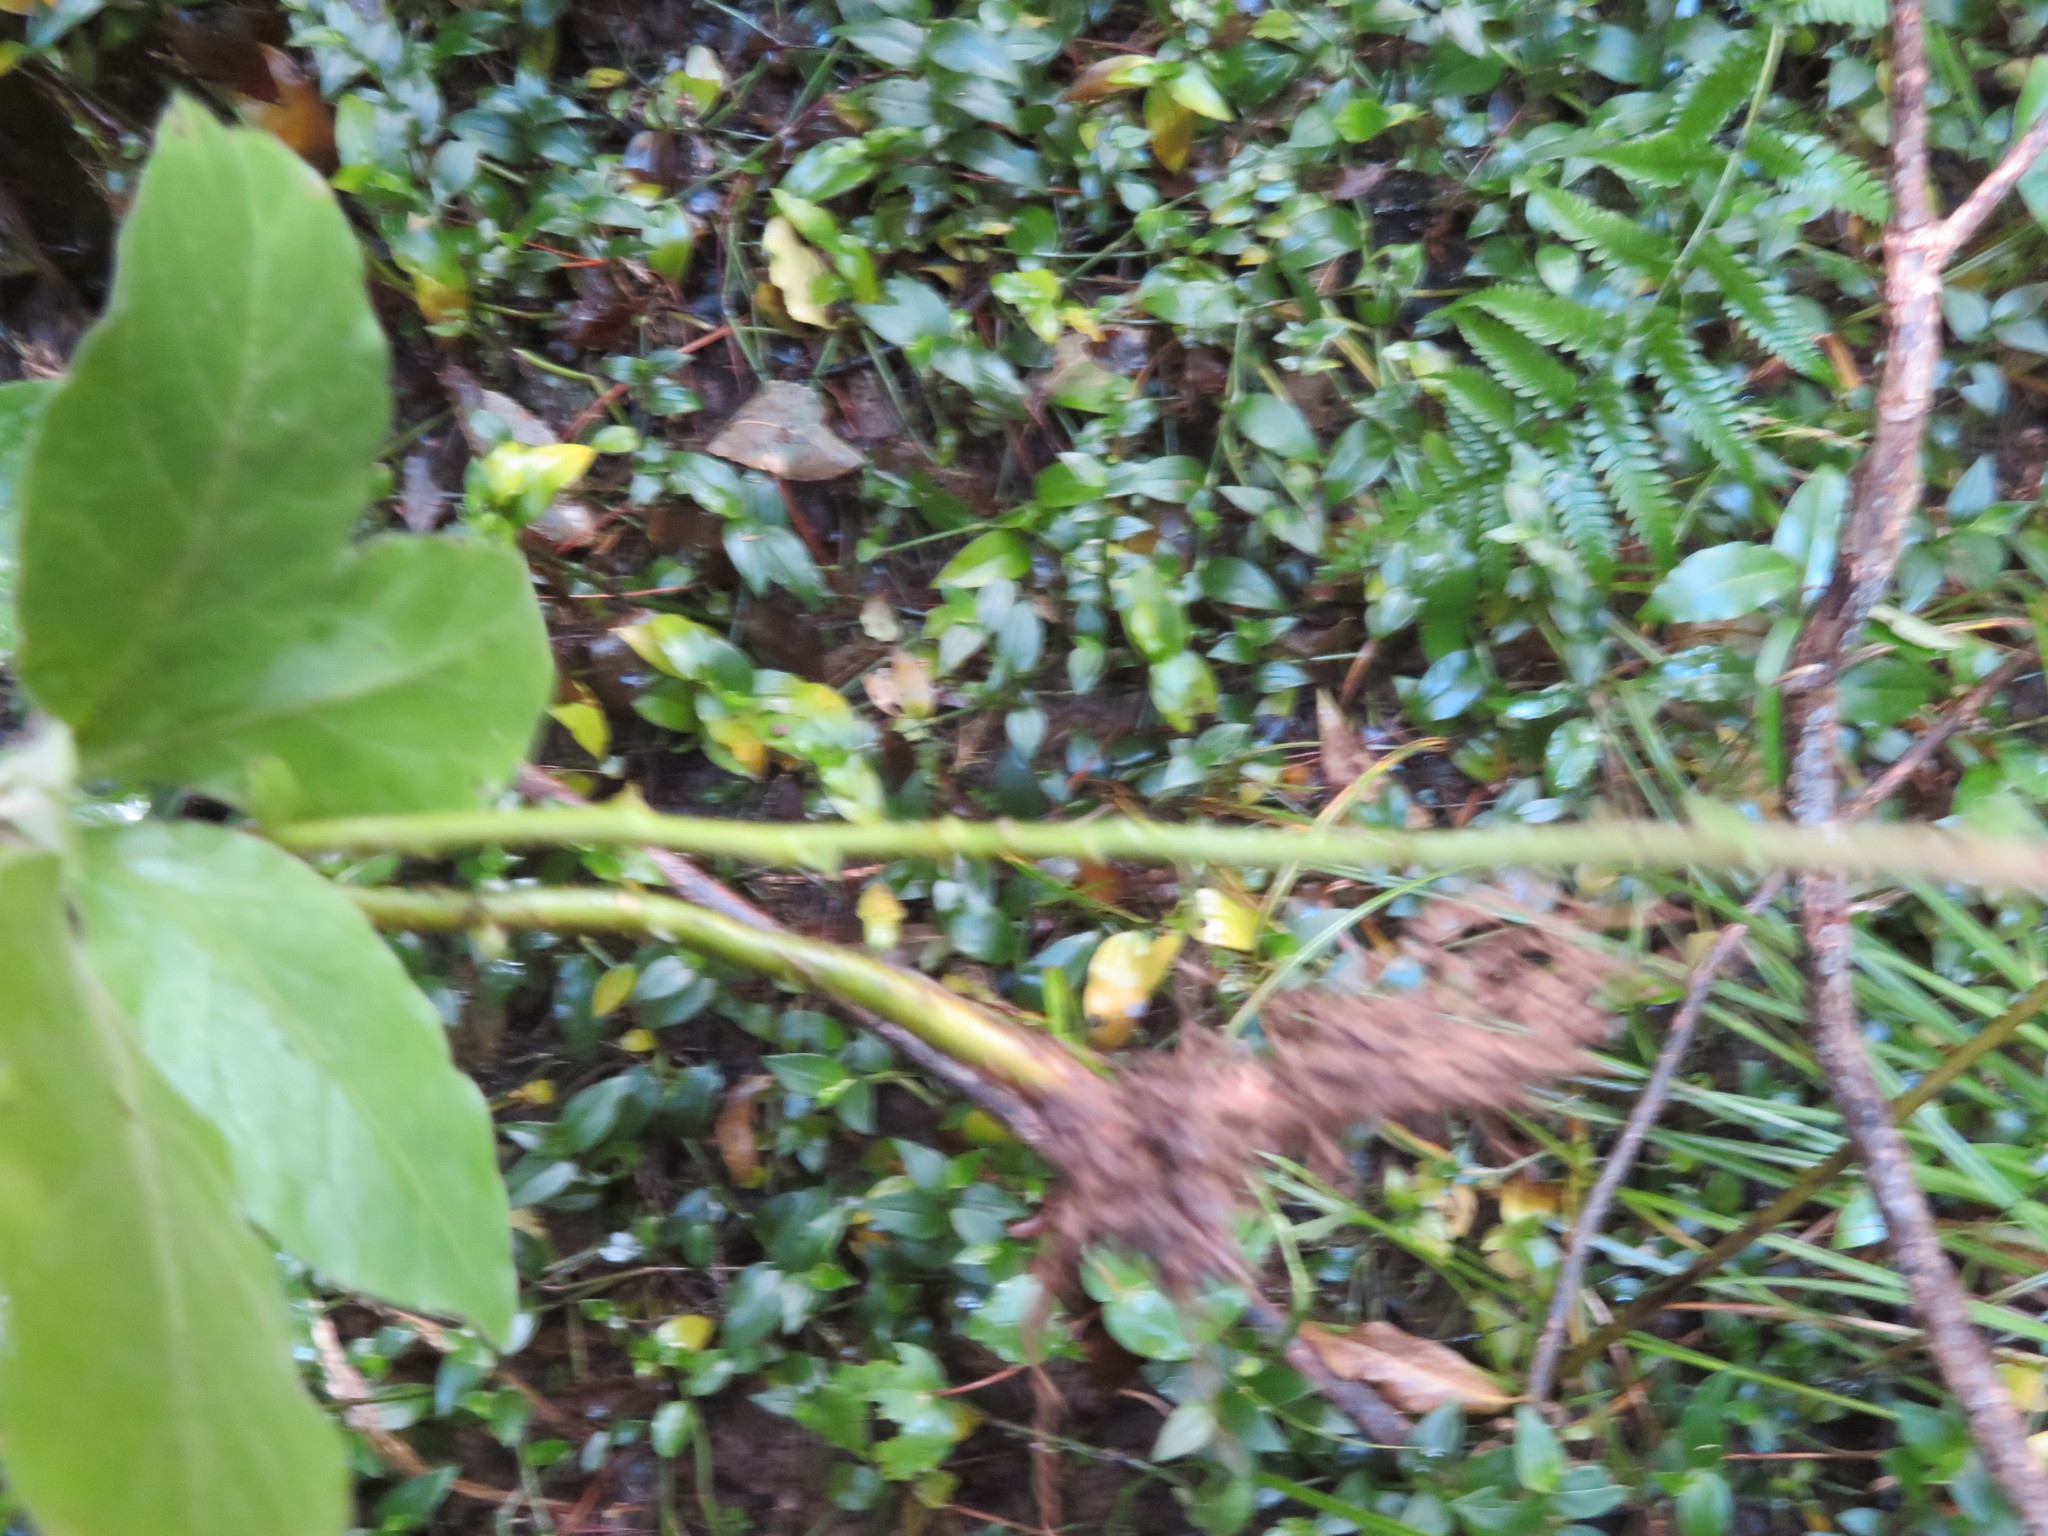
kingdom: Plantae
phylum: Tracheophyta
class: Magnoliopsida
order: Solanales
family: Solanaceae
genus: Solanum
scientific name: Solanum mauritianum
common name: Earleaf nightshade
